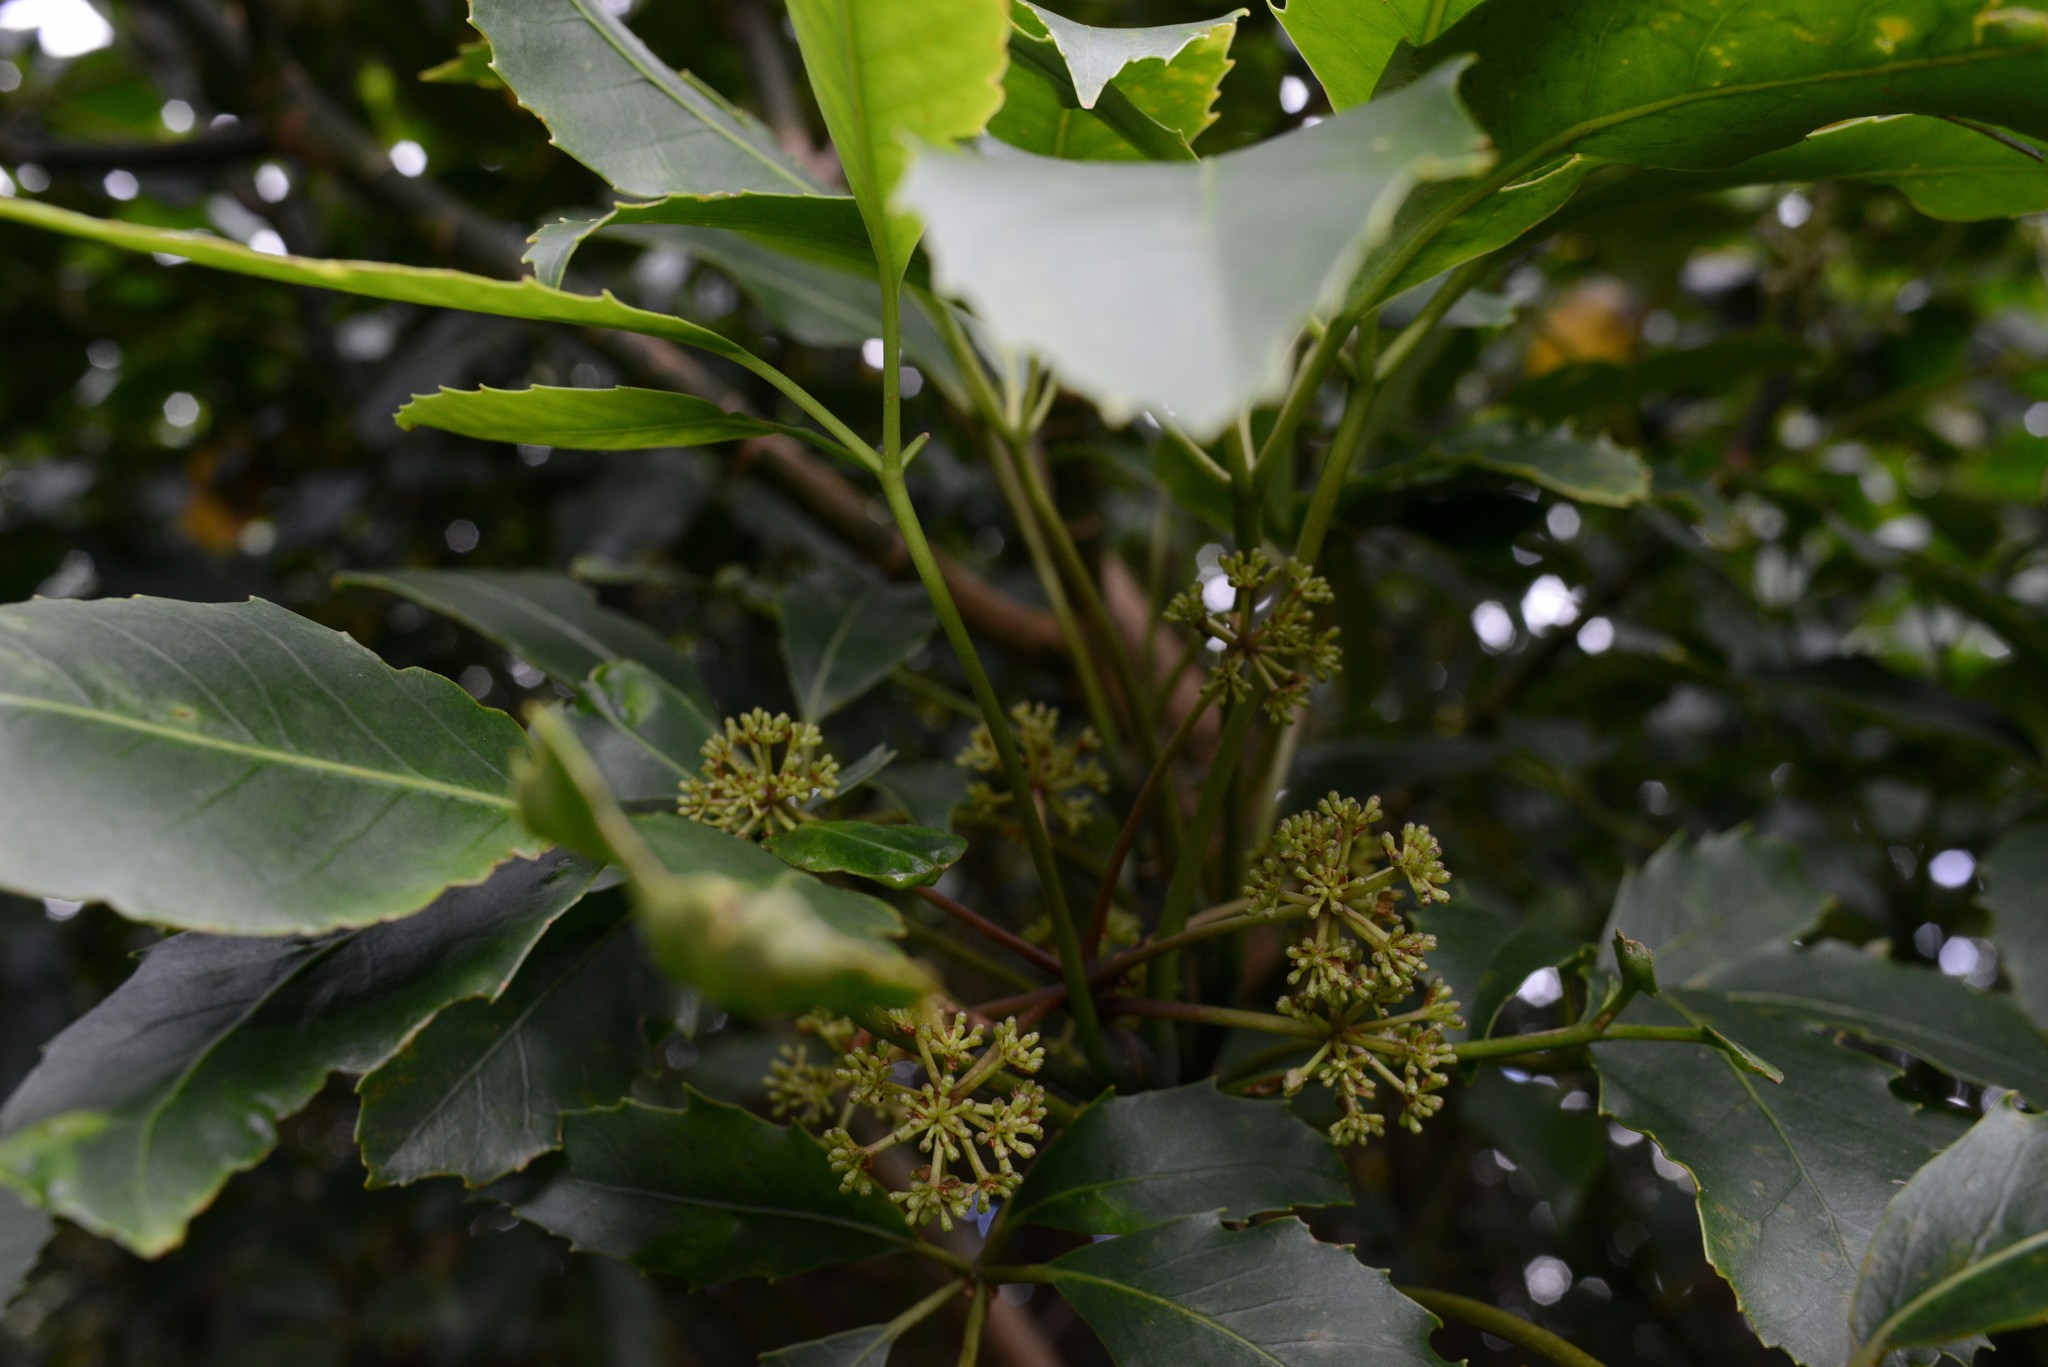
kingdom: Plantae
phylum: Tracheophyta
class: Magnoliopsida
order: Apiales
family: Araliaceae
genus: Neopanax
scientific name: Neopanax arboreus
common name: Five-fingers
